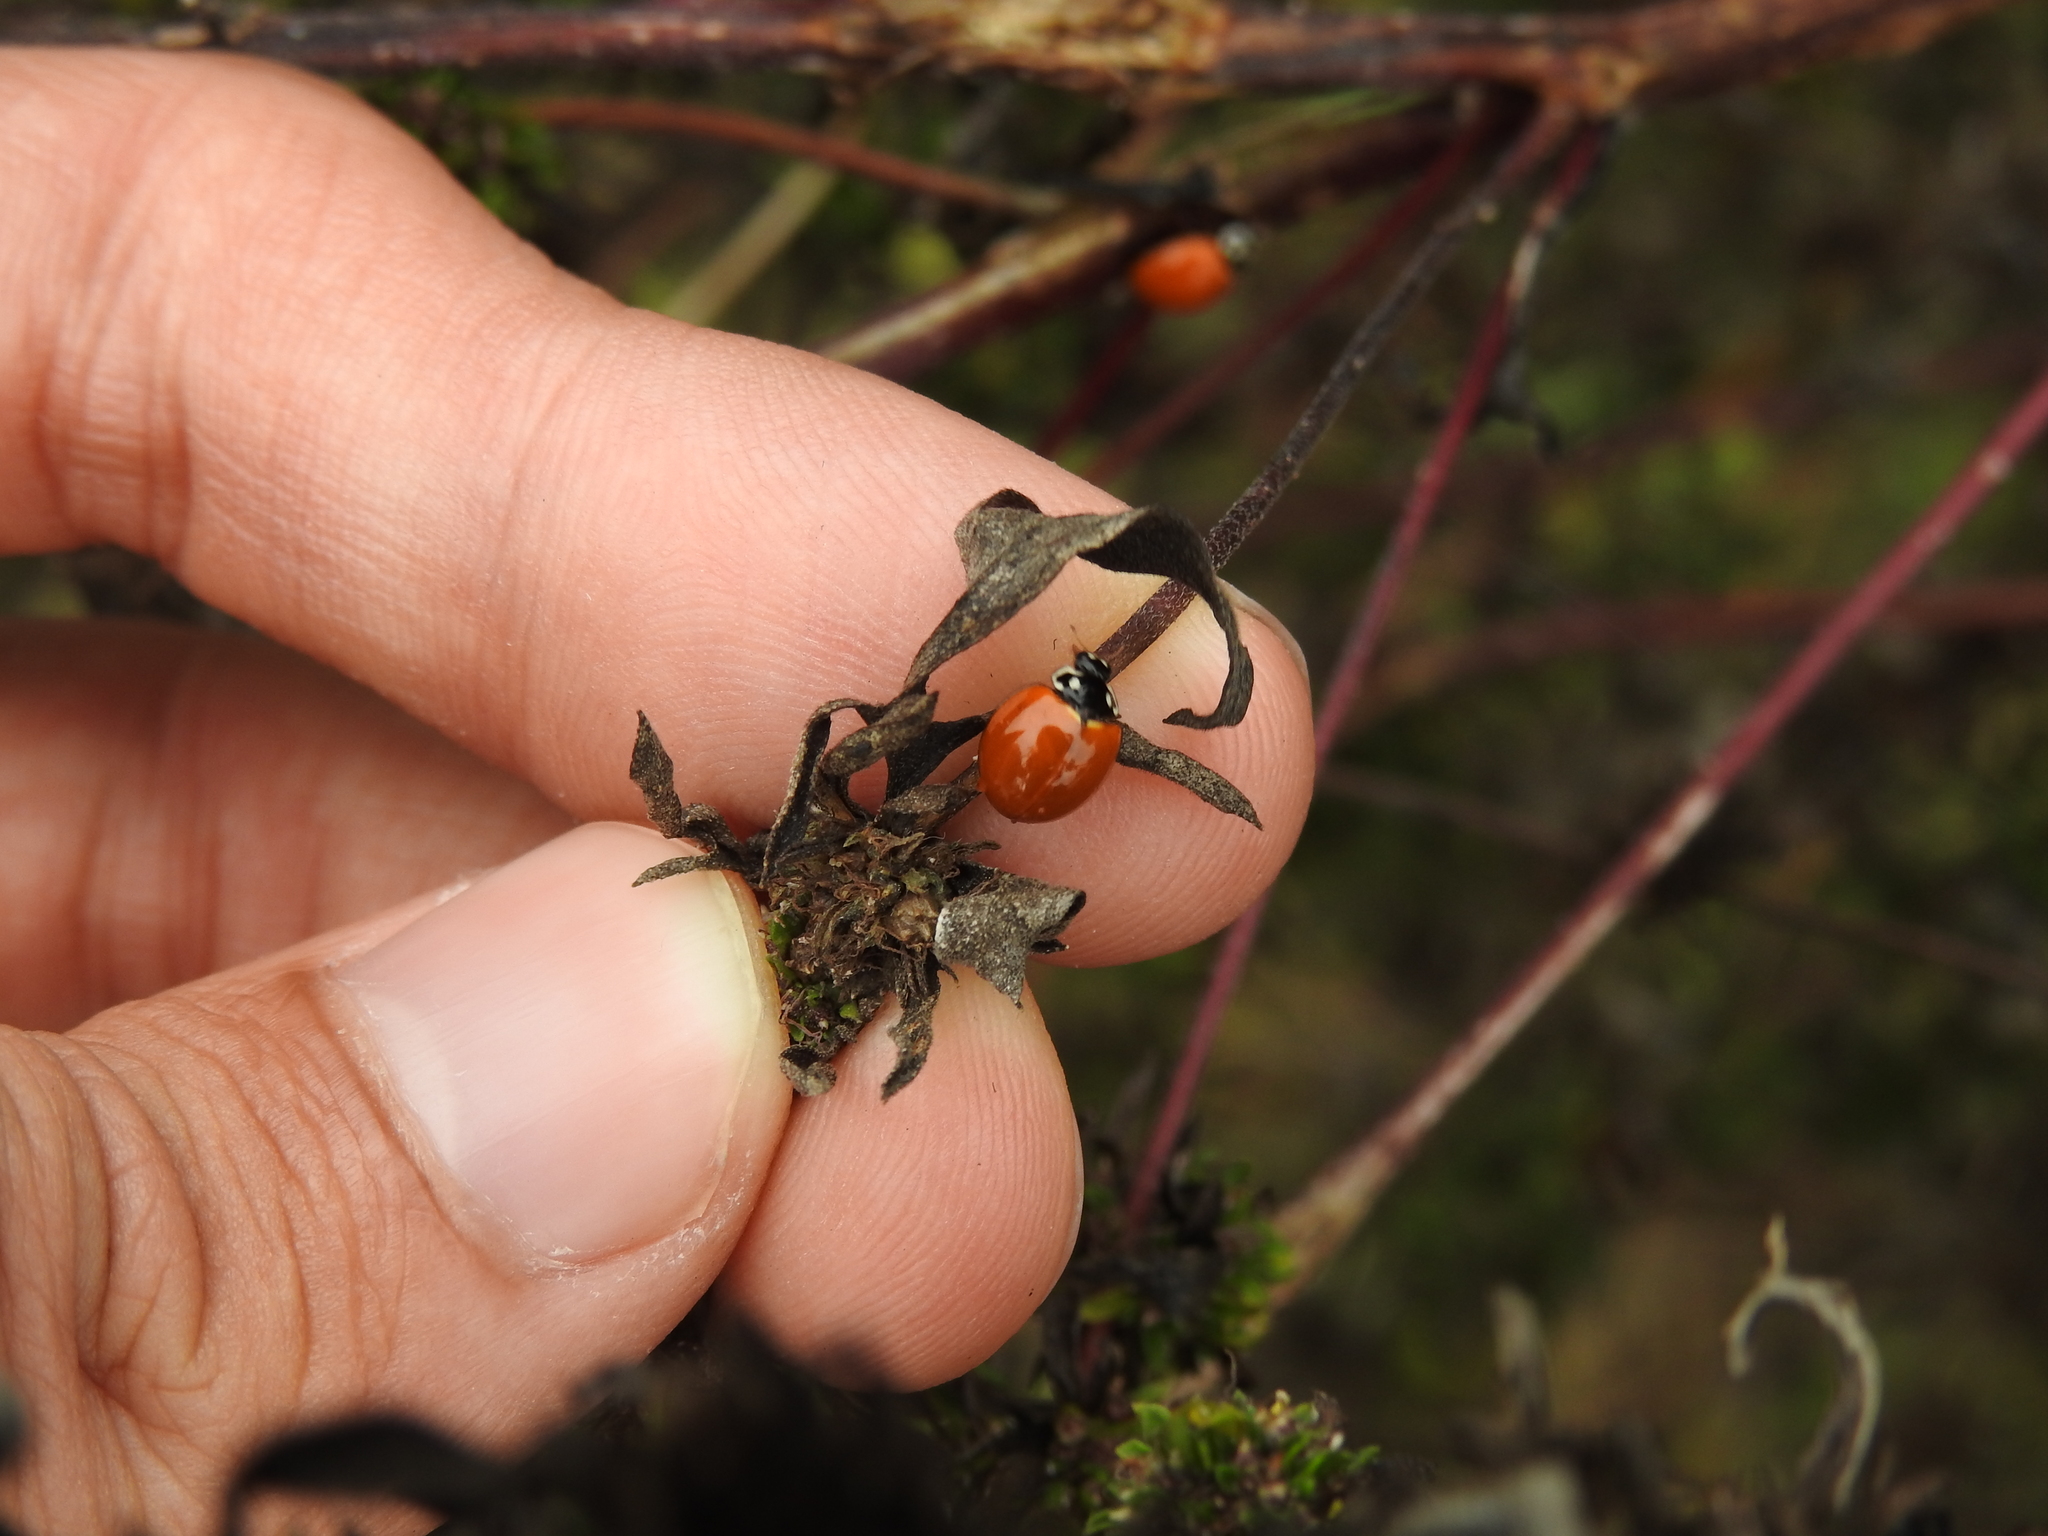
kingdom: Animalia
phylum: Arthropoda
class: Insecta
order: Coleoptera
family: Coccinellidae
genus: Cycloneda
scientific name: Cycloneda sanguinea
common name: Ladybird beetle
